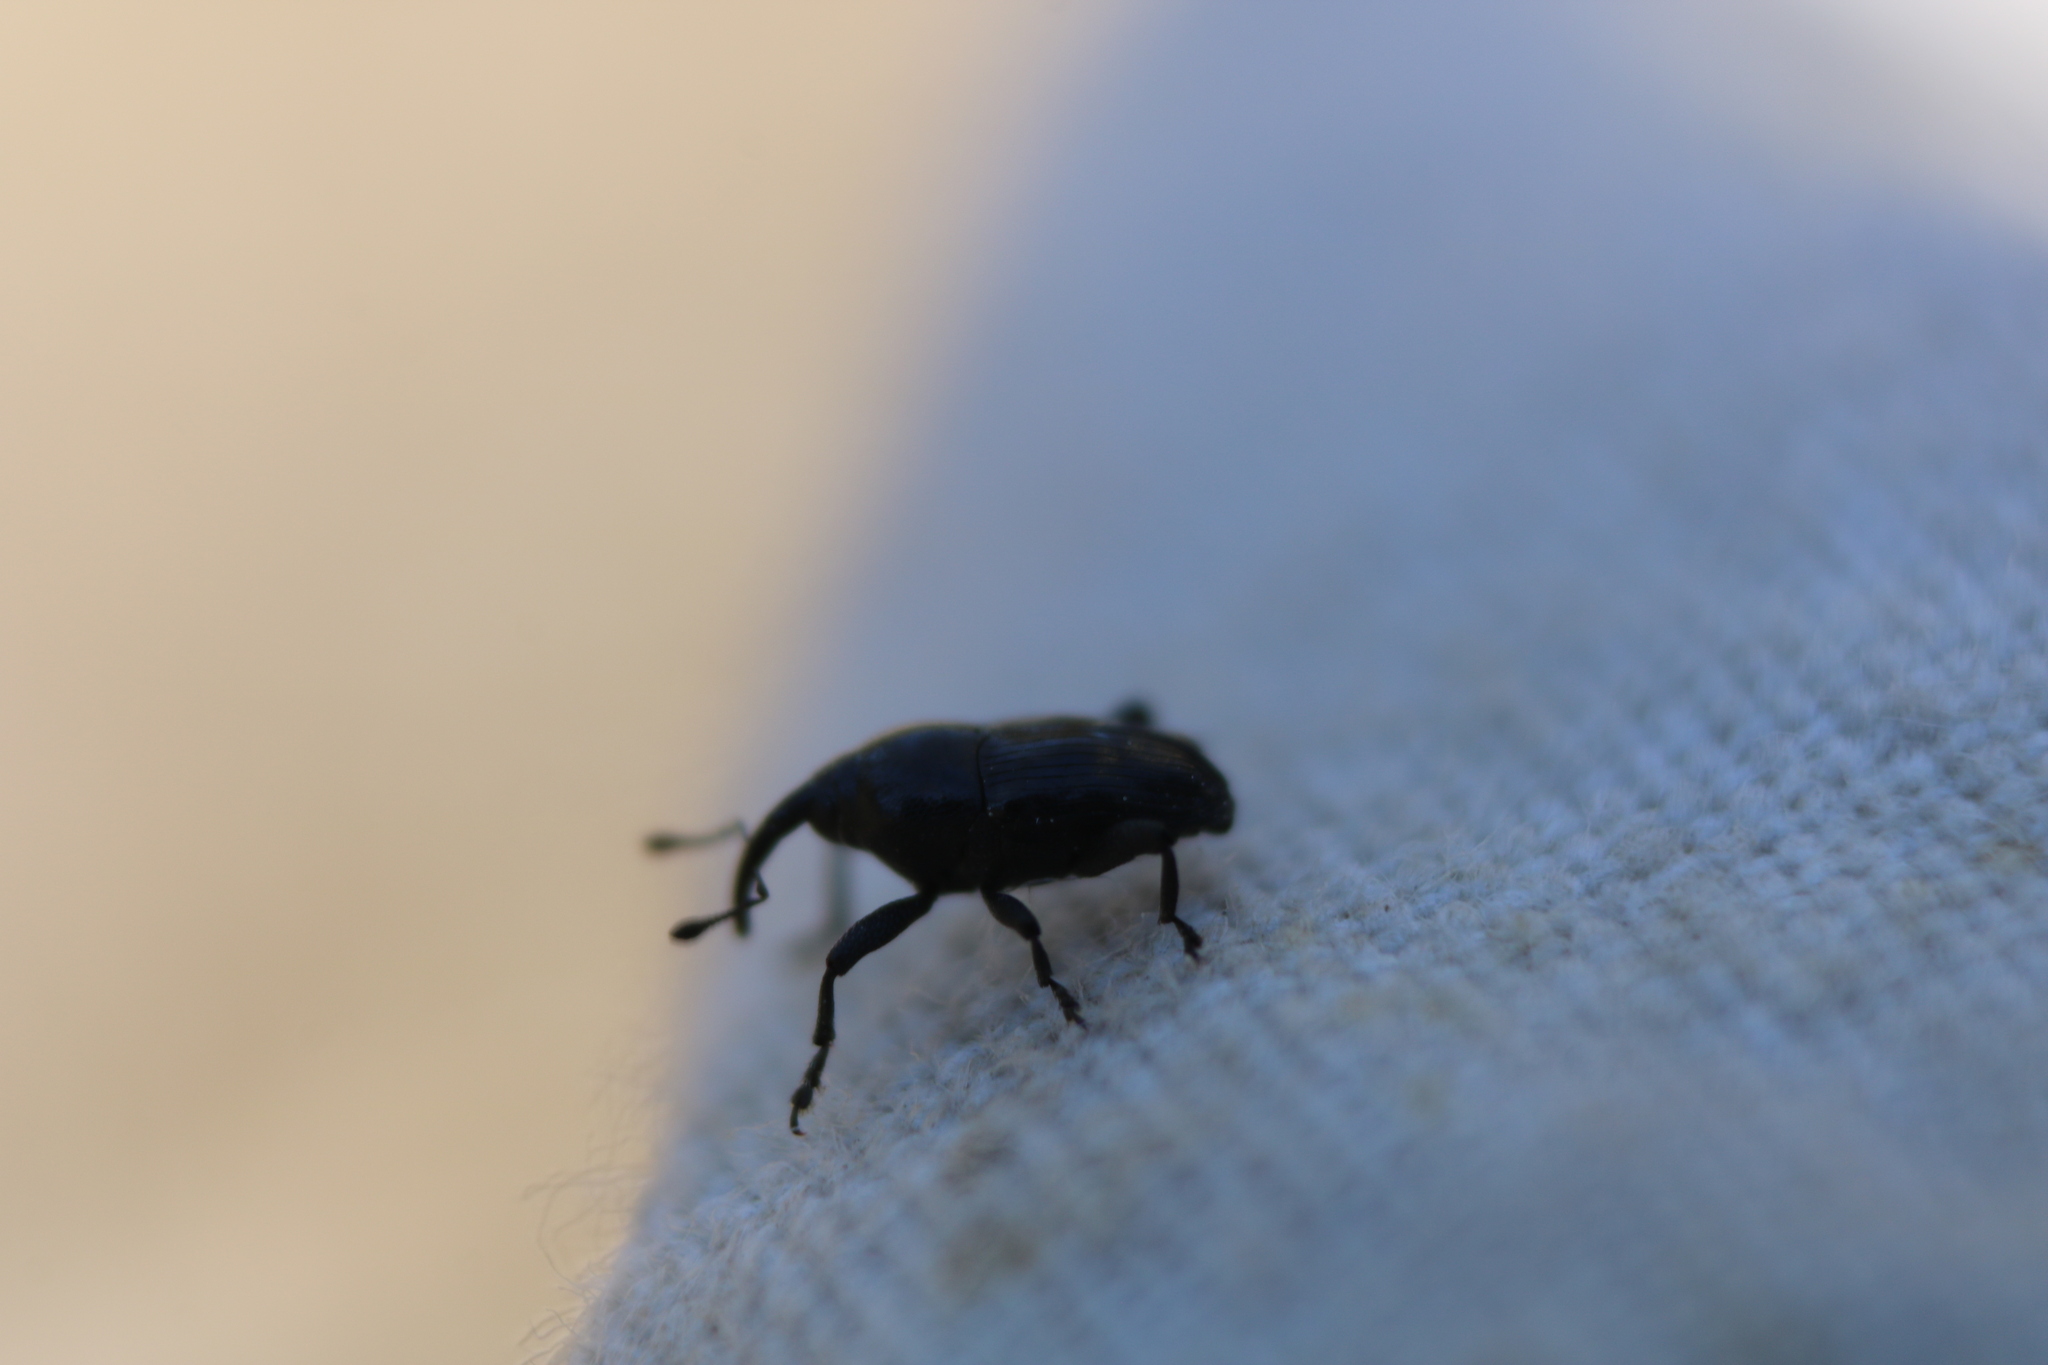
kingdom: Animalia
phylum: Arthropoda
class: Insecta
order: Coleoptera
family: Curculionidae
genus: Madarellus
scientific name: Madarellus undulatus
